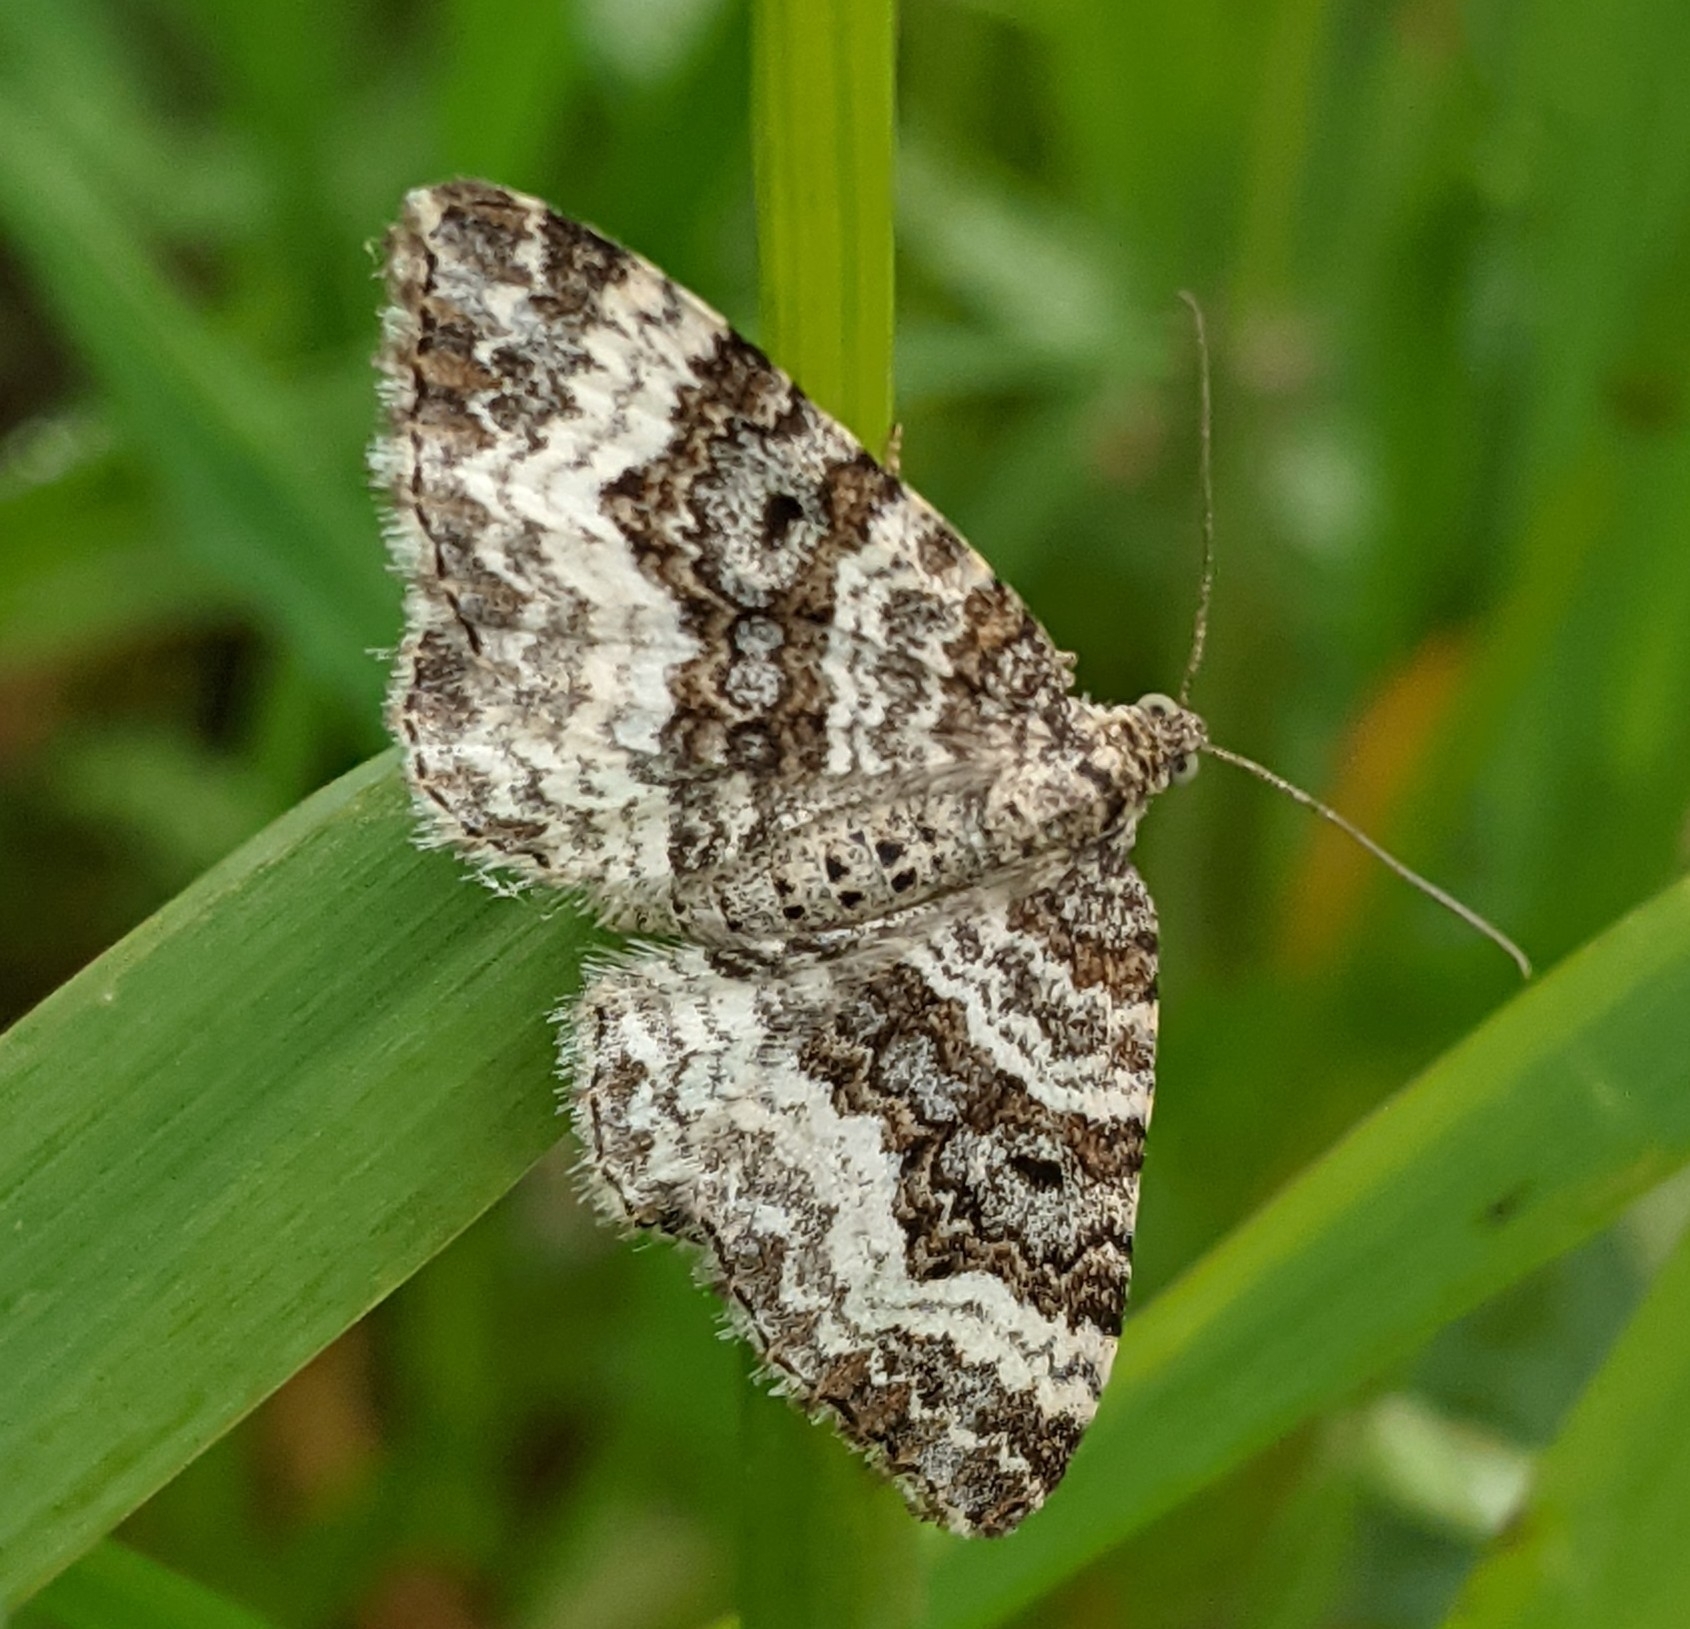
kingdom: Animalia
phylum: Arthropoda
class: Insecta
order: Lepidoptera
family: Geometridae
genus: Epirrhoe
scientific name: Epirrhoe alternata
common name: Common carpet
